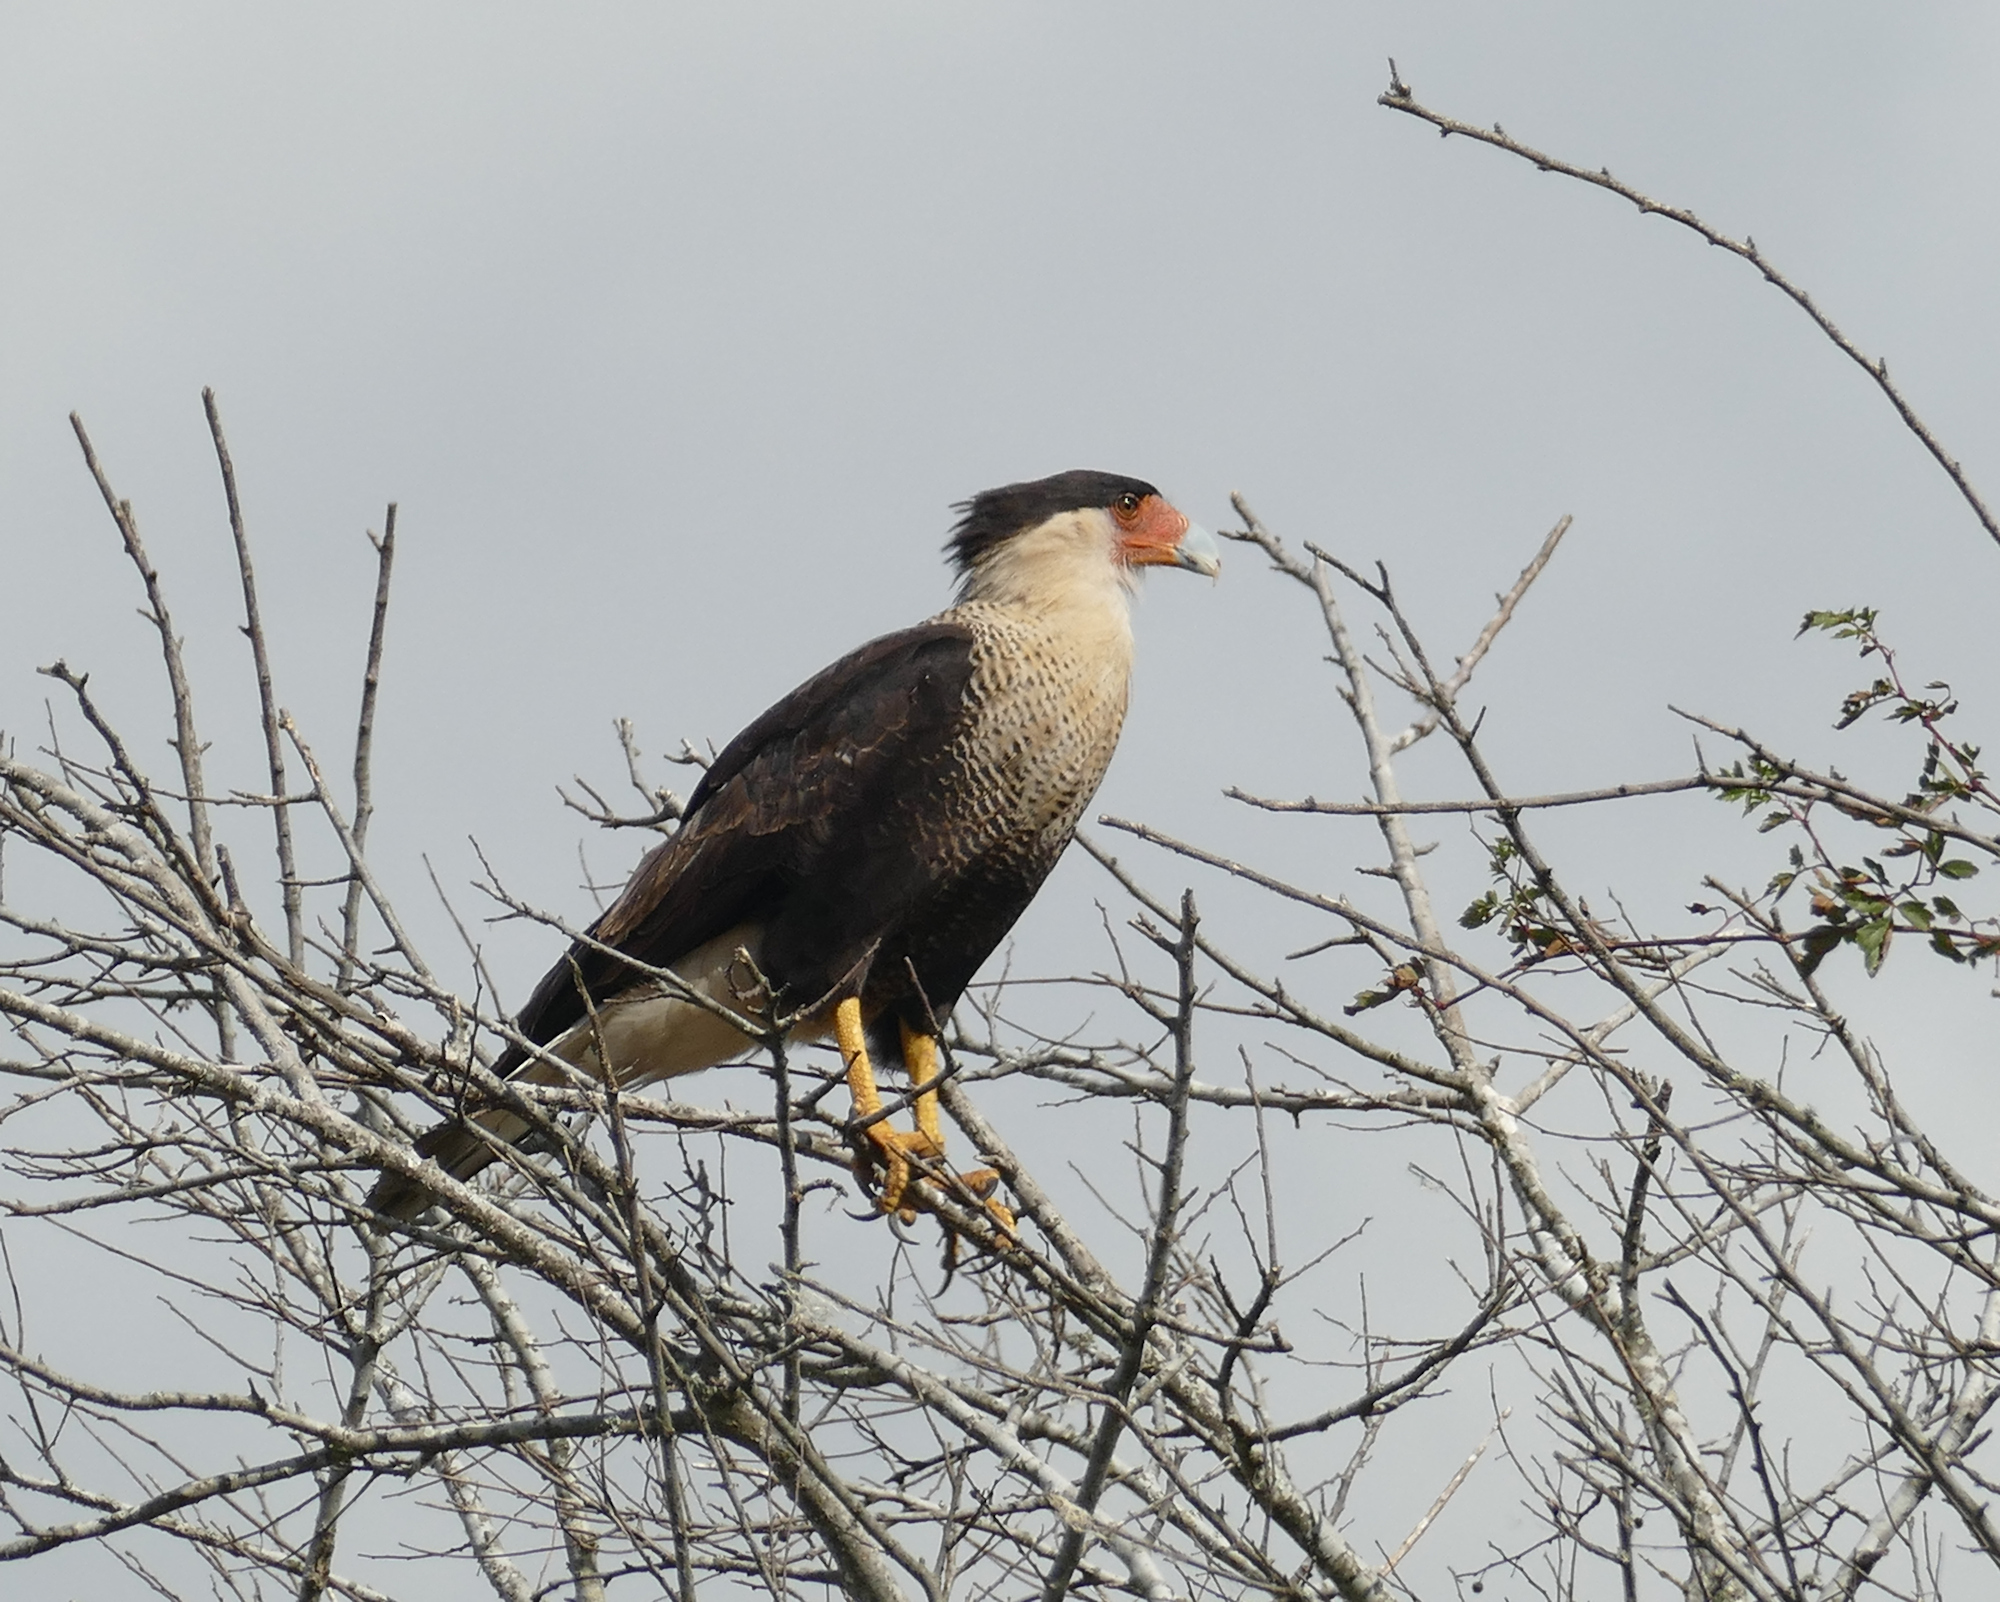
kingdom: Animalia
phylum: Chordata
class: Aves
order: Falconiformes
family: Falconidae
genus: Caracara
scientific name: Caracara plancus
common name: Southern caracara
